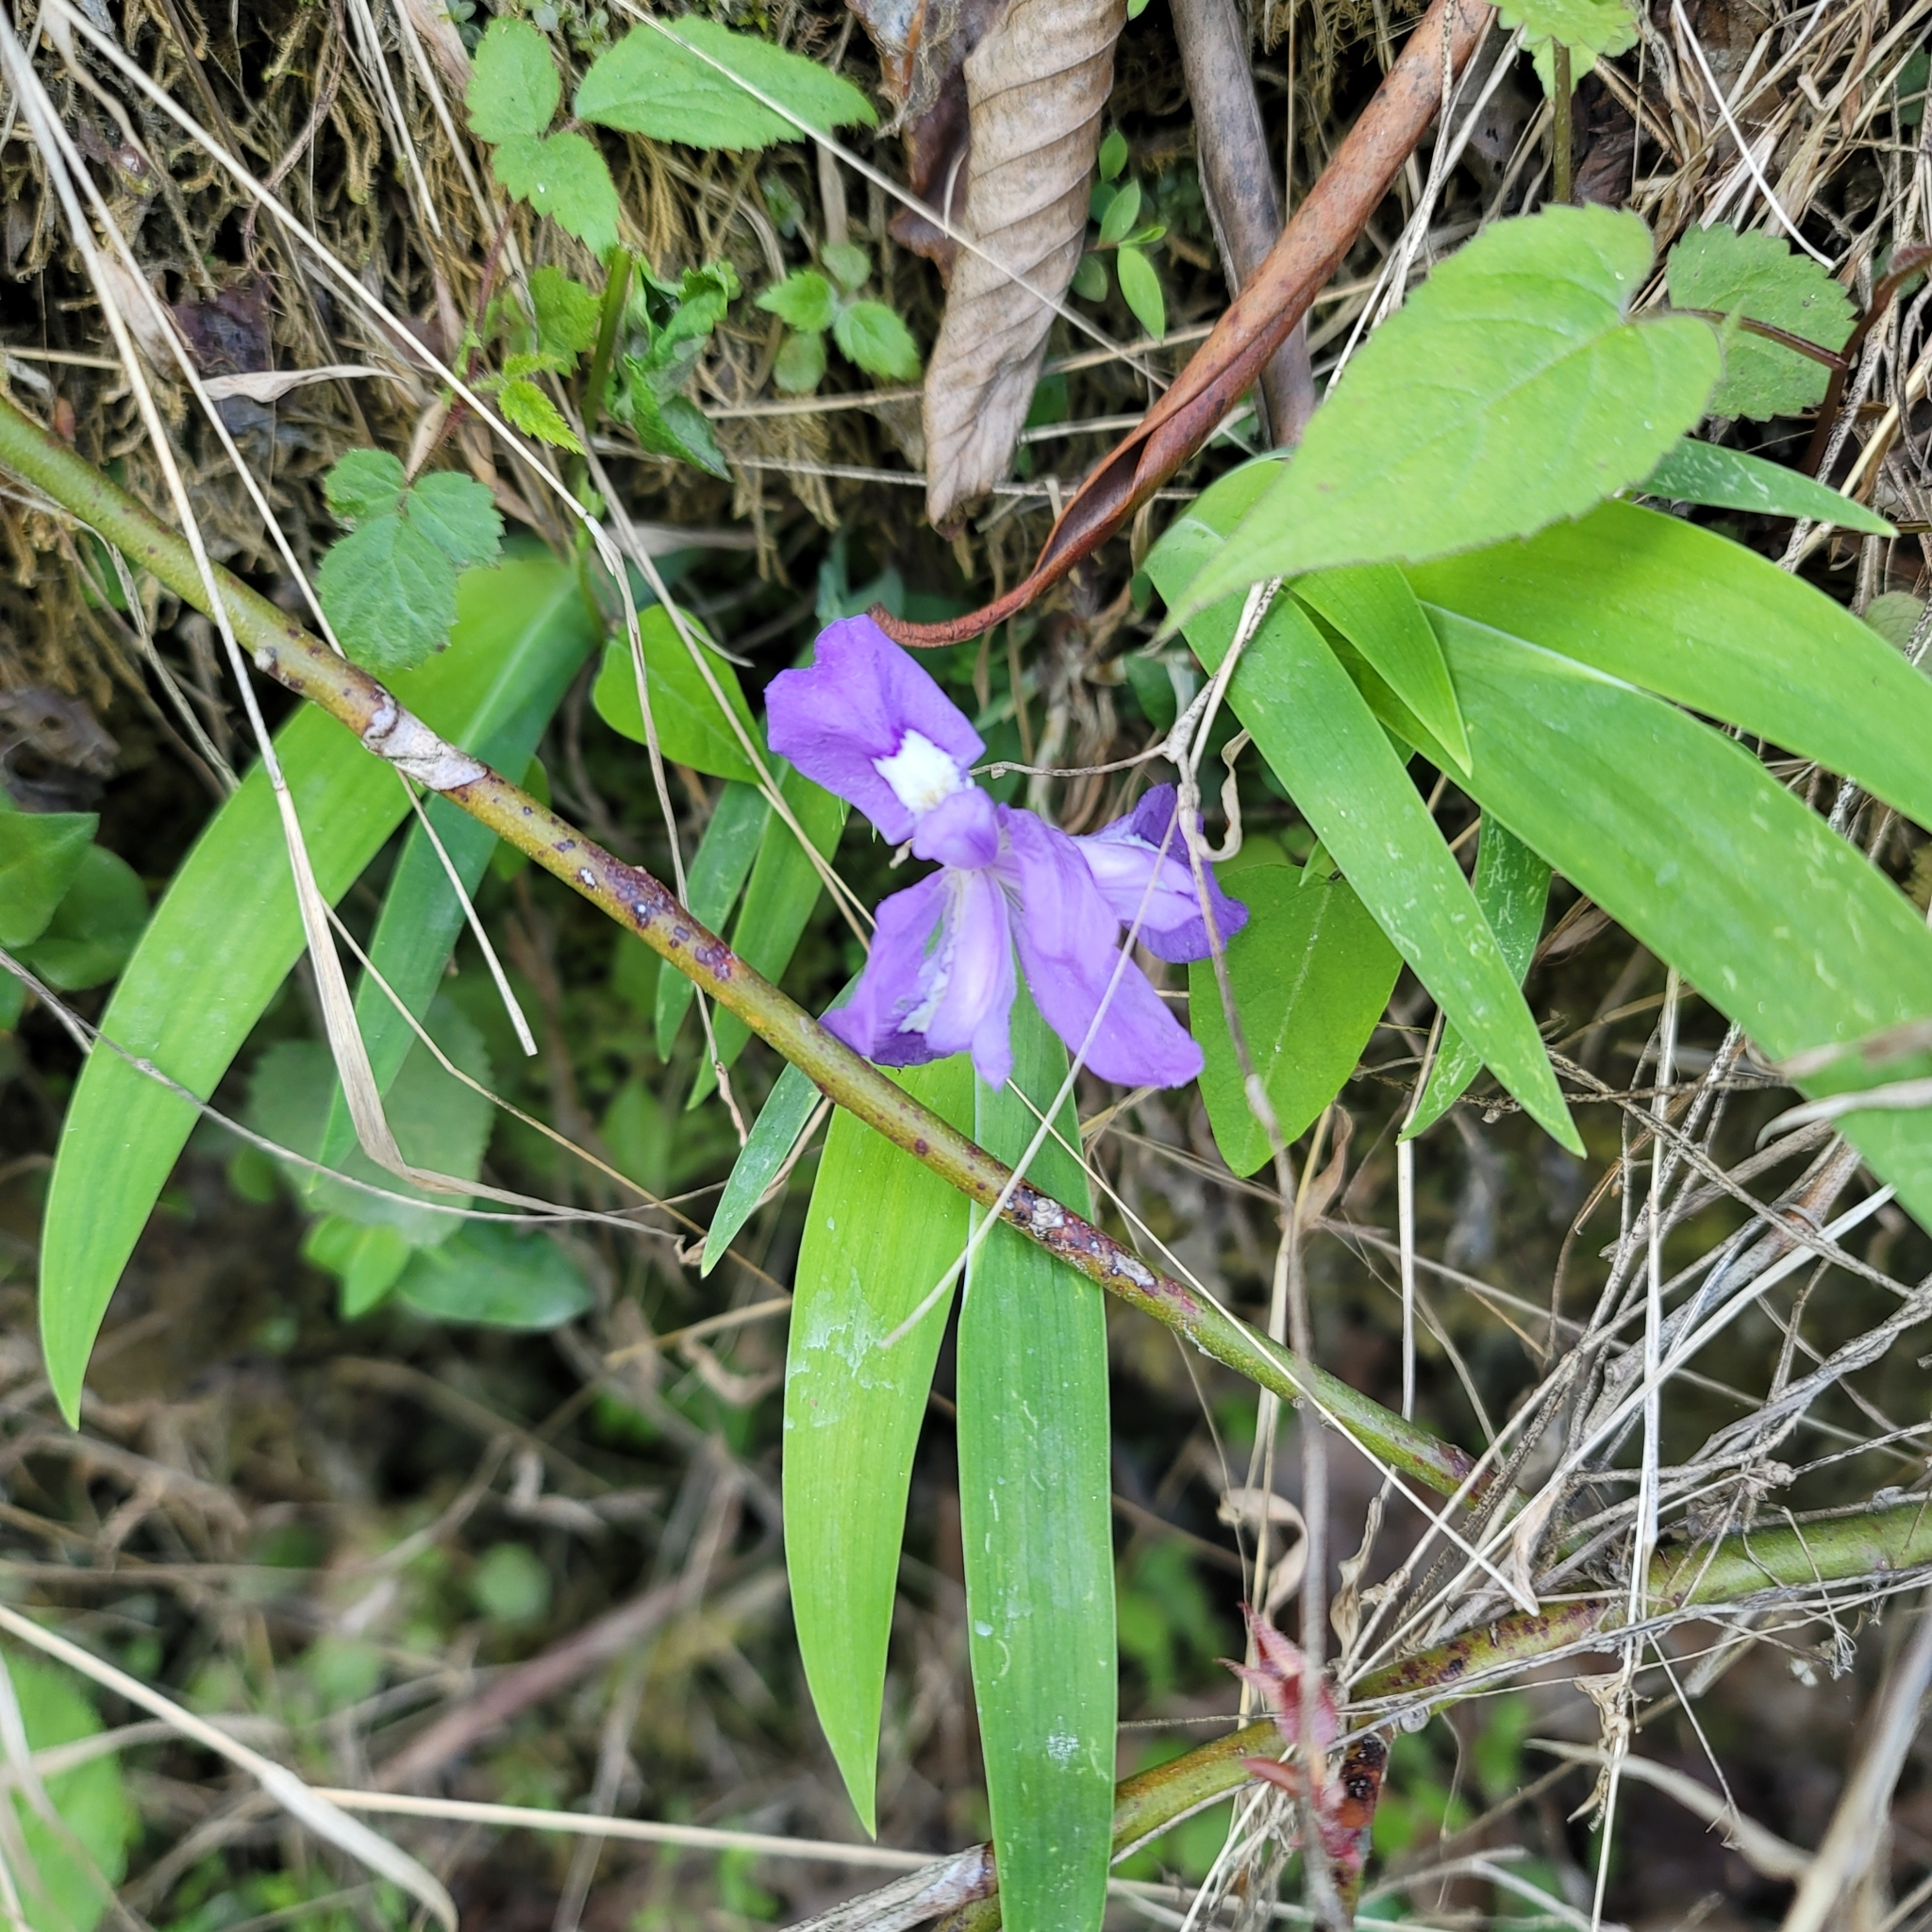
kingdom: Plantae
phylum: Tracheophyta
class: Liliopsida
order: Asparagales
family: Iridaceae
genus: Iris
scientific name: Iris cristata
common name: Crested iris
